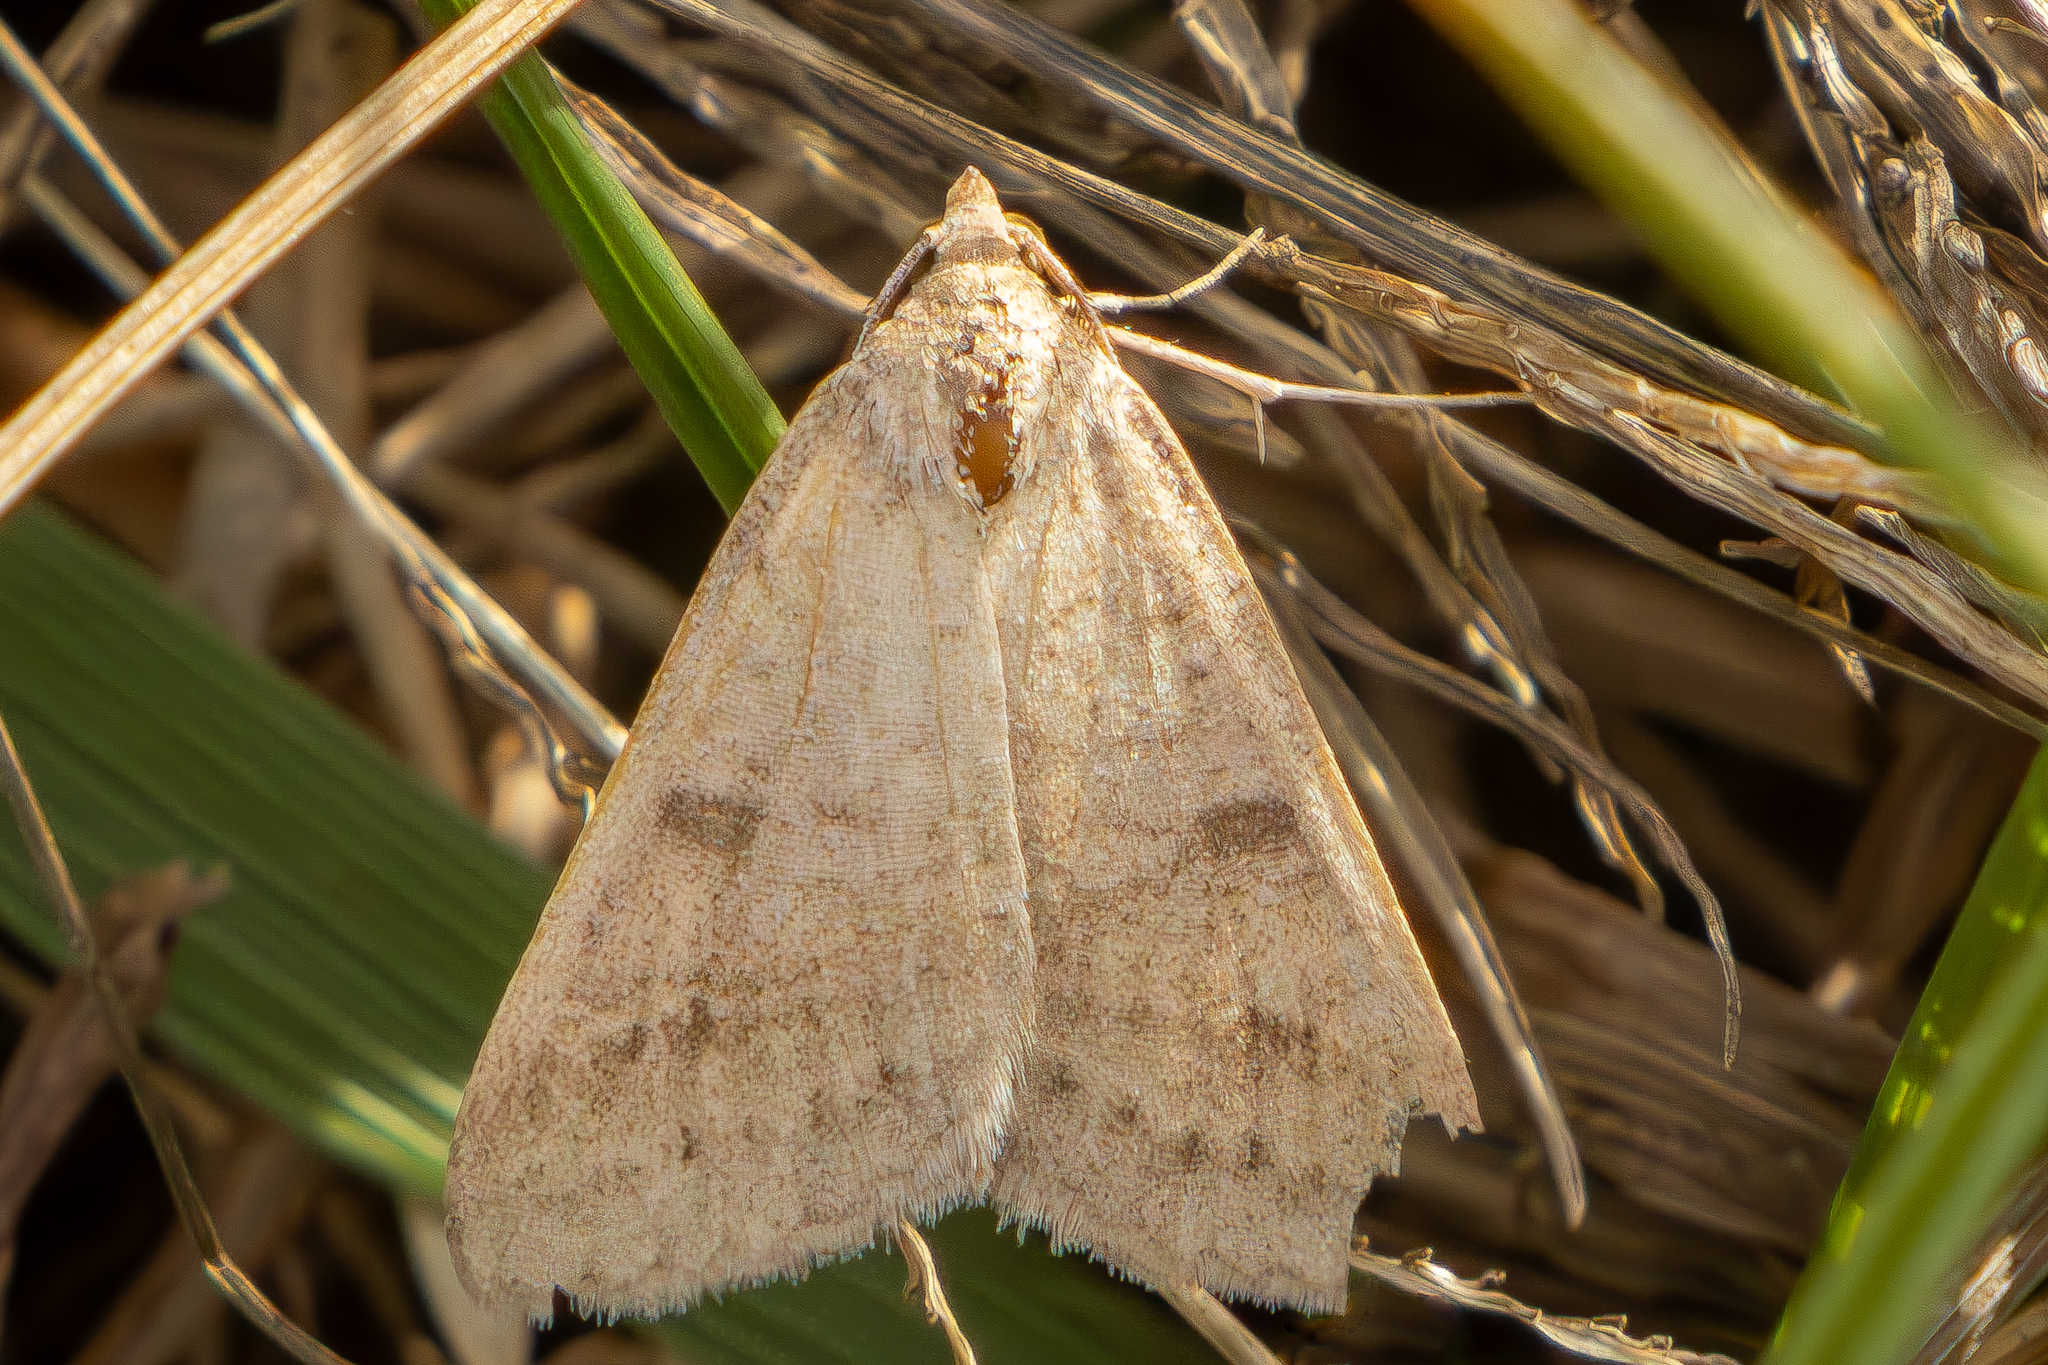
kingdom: Animalia
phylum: Arthropoda
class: Insecta
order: Lepidoptera
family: Erebidae
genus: Caenurgia
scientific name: Caenurgia chloropha
